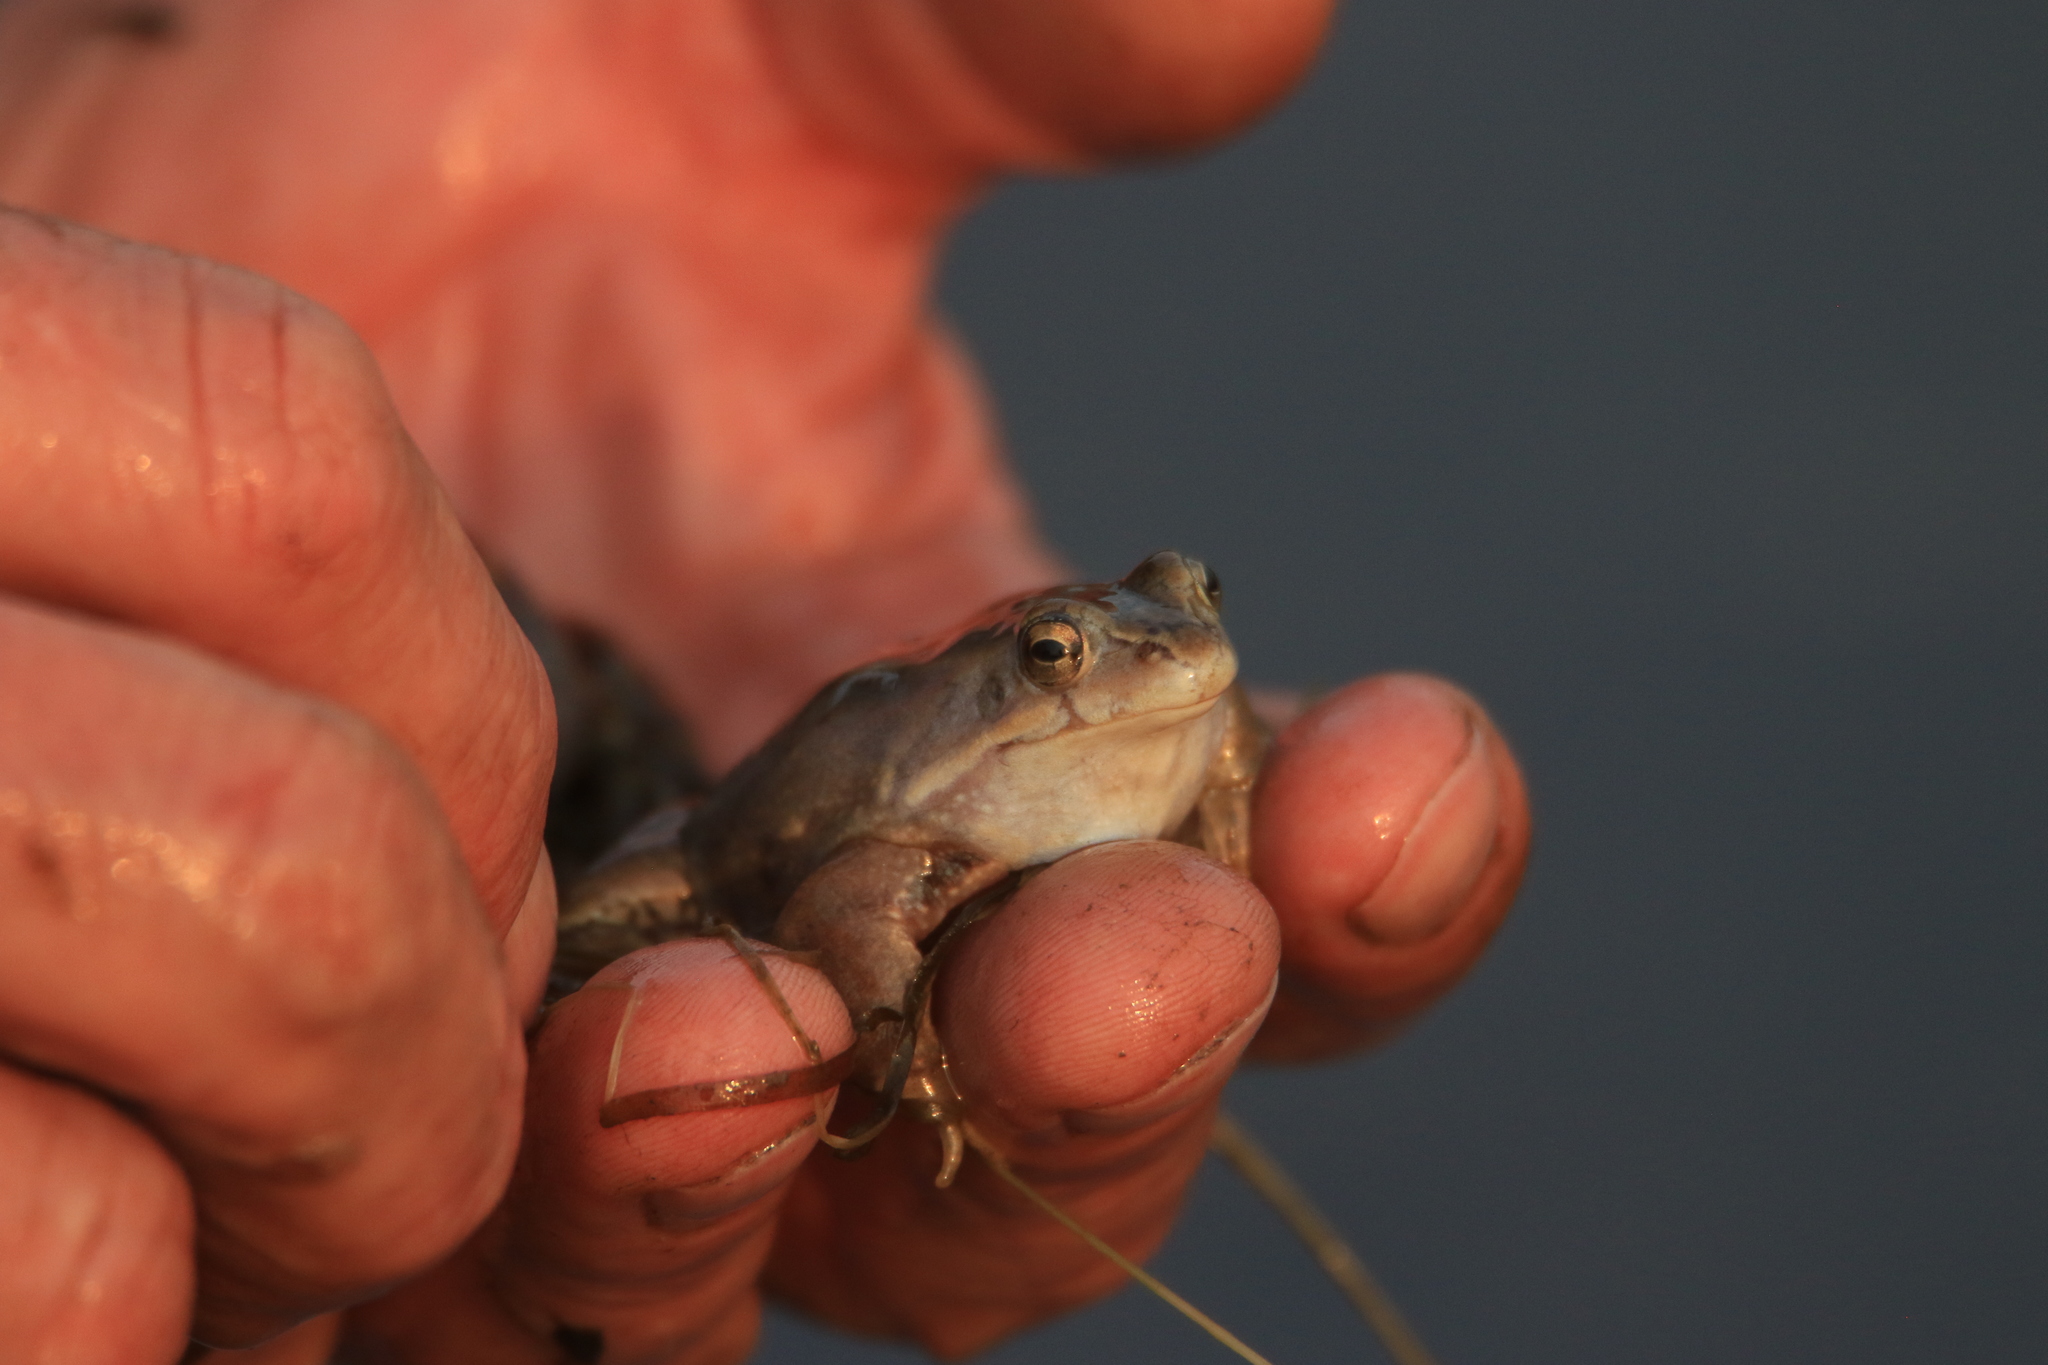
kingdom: Animalia
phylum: Chordata
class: Amphibia
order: Anura
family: Ranidae
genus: Rana
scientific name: Rana arvalis
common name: Moor frog
